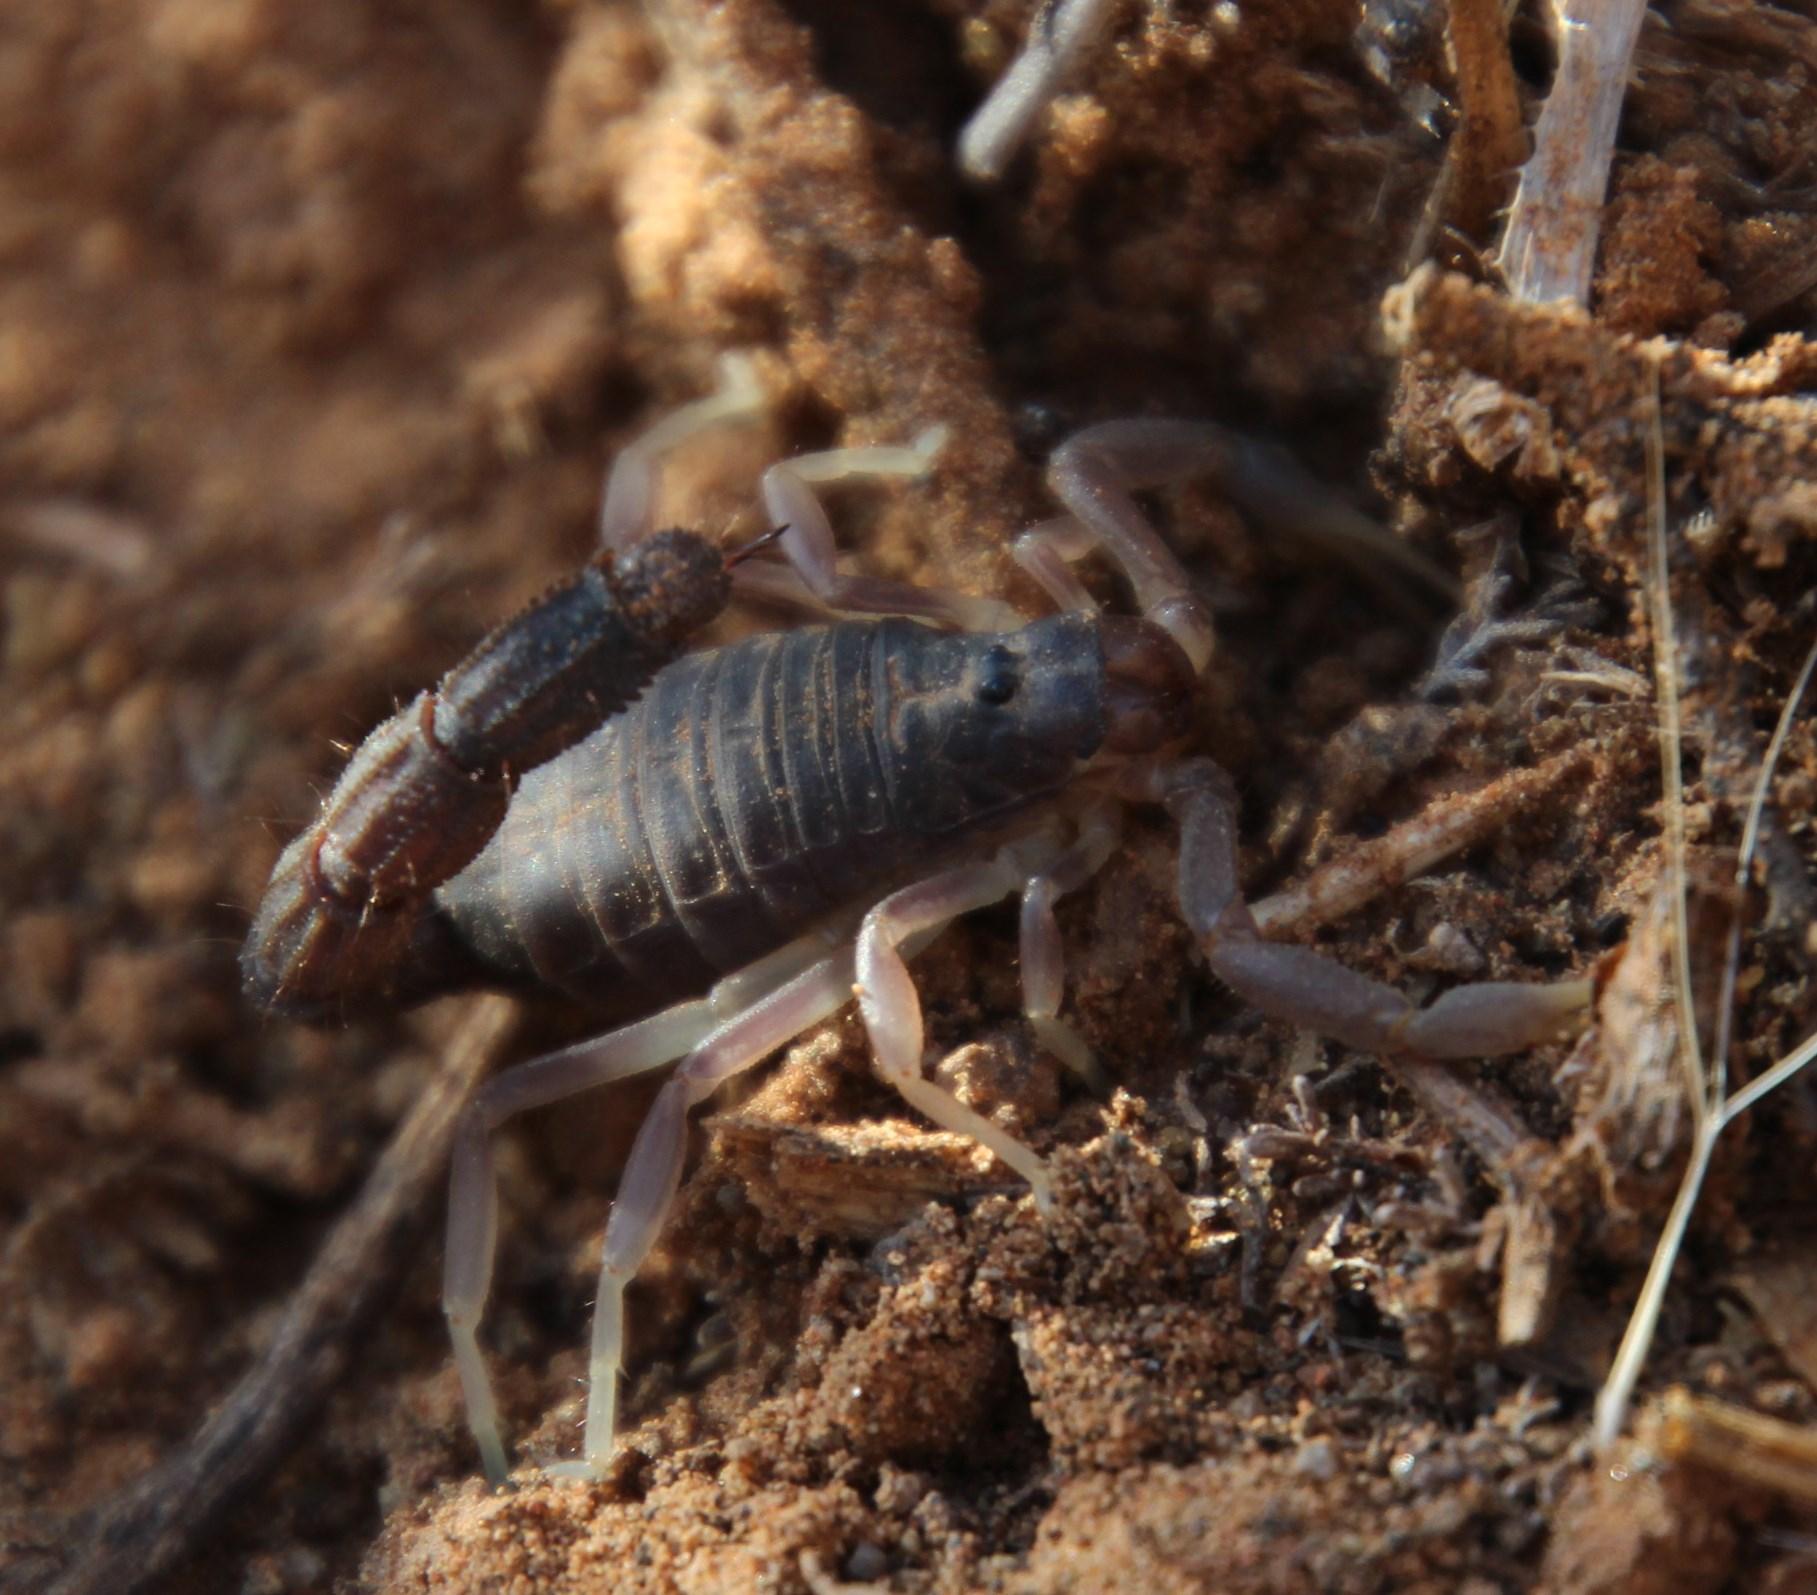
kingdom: Animalia
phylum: Arthropoda
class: Arachnida
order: Scorpiones
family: Buthidae
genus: Parabuthus
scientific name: Parabuthus schlechteri
